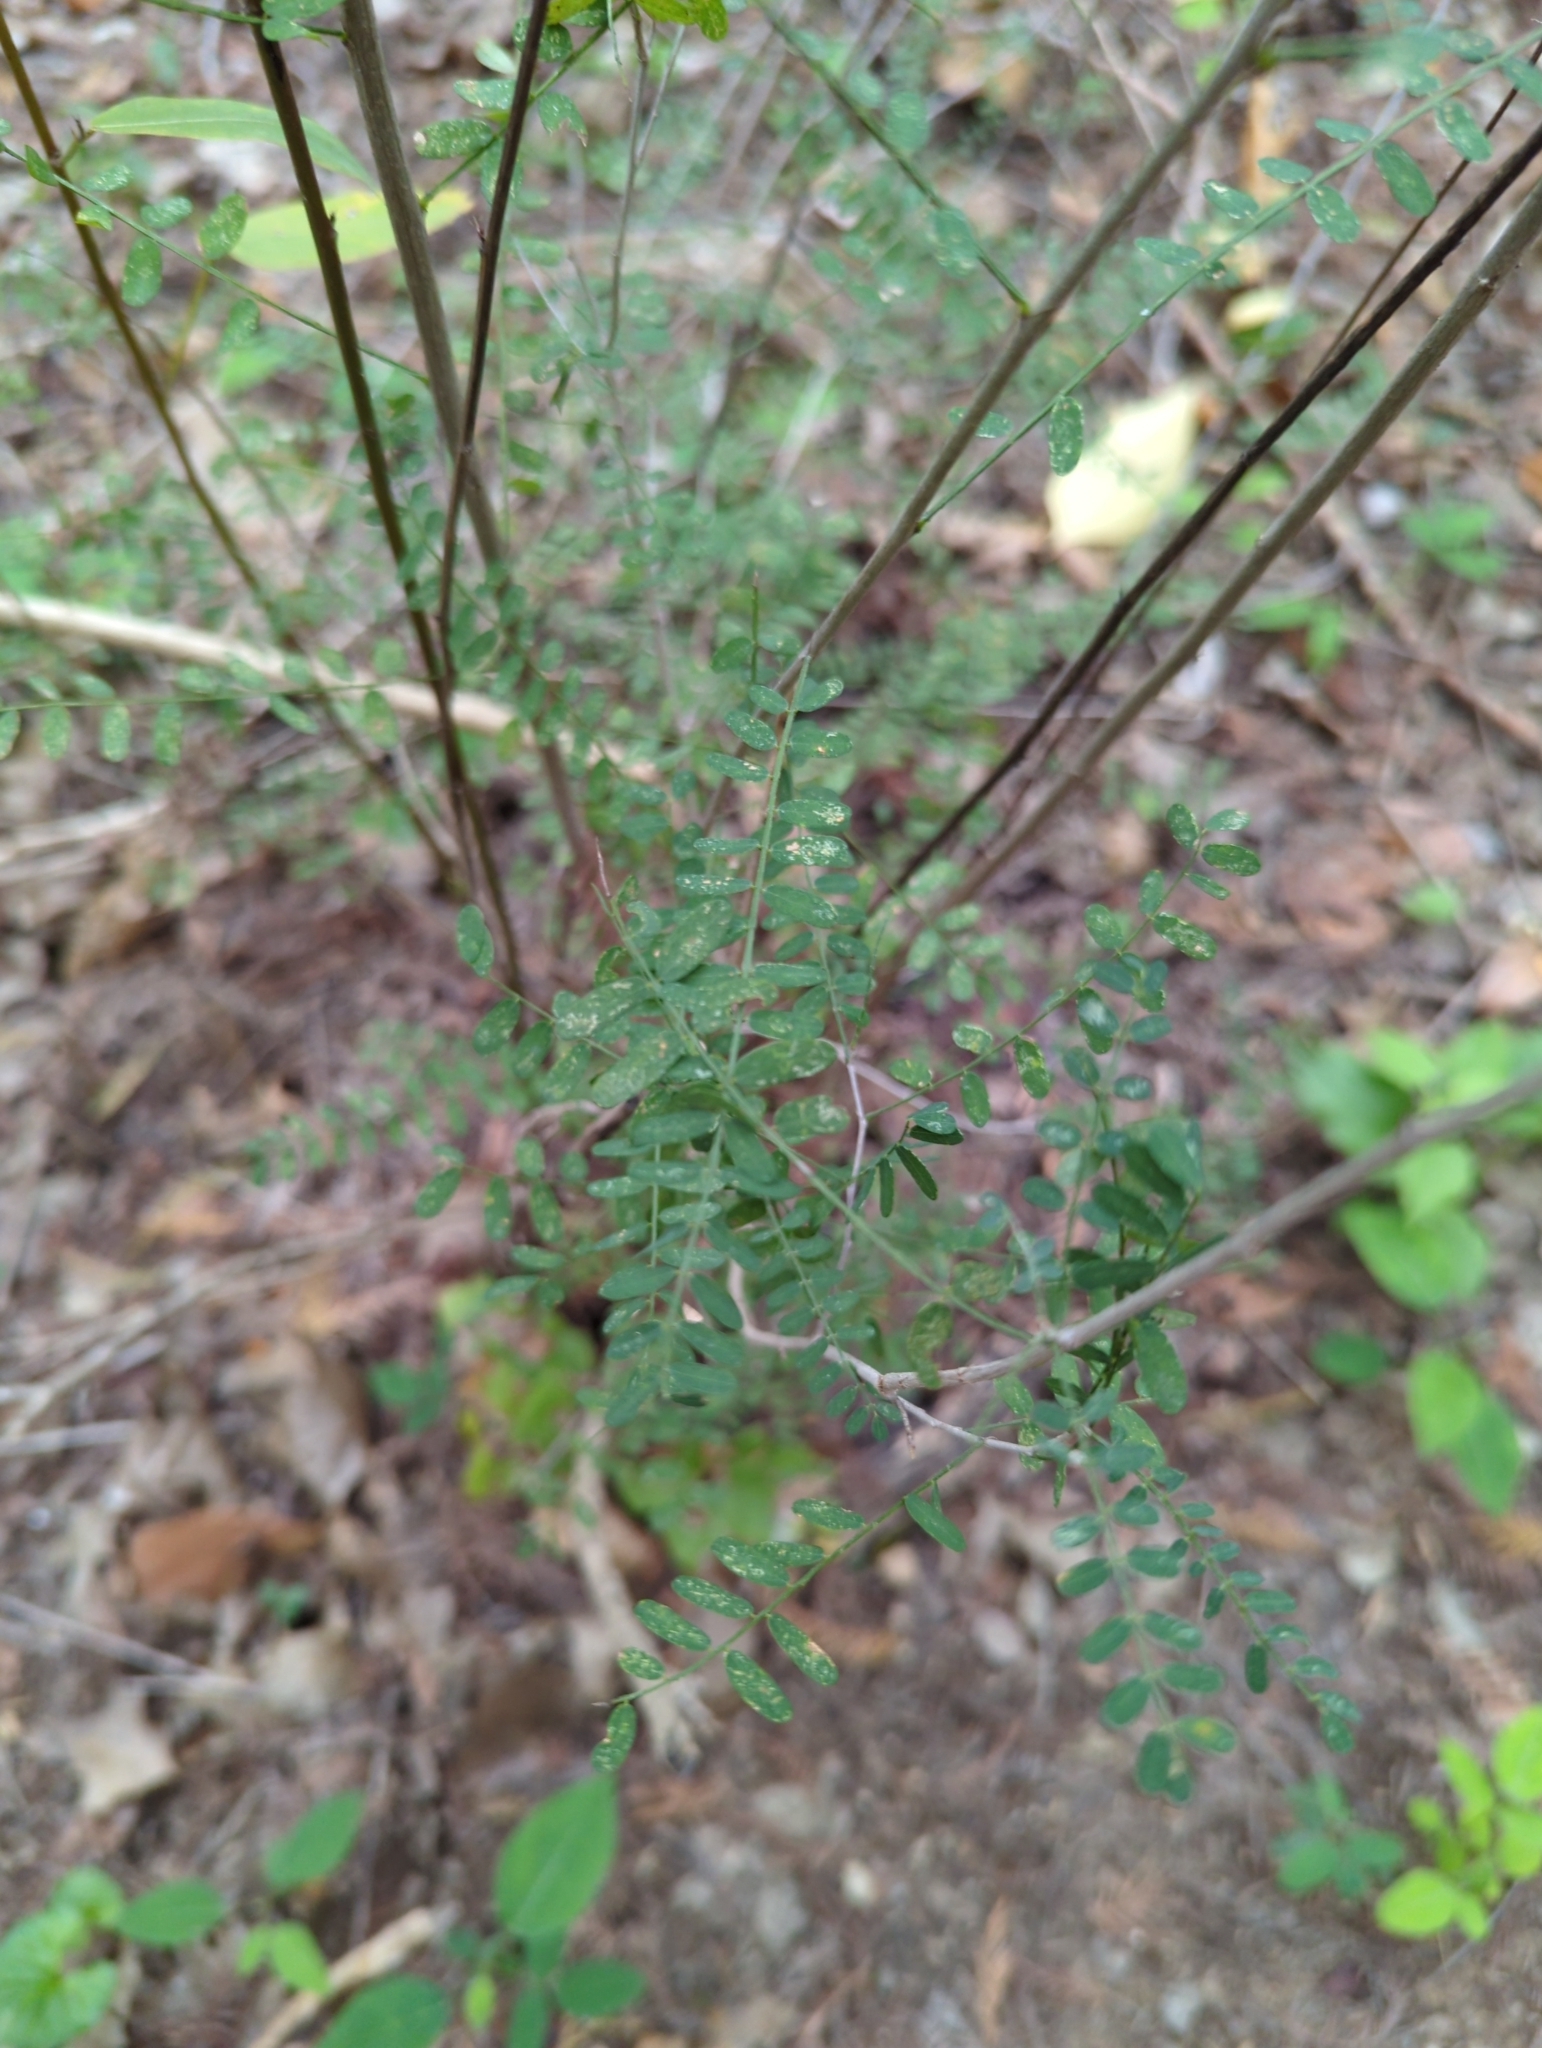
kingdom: Plantae
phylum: Tracheophyta
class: Magnoliopsida
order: Fabales
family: Fabaceae
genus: Eysenhardtia
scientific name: Eysenhardtia texana
